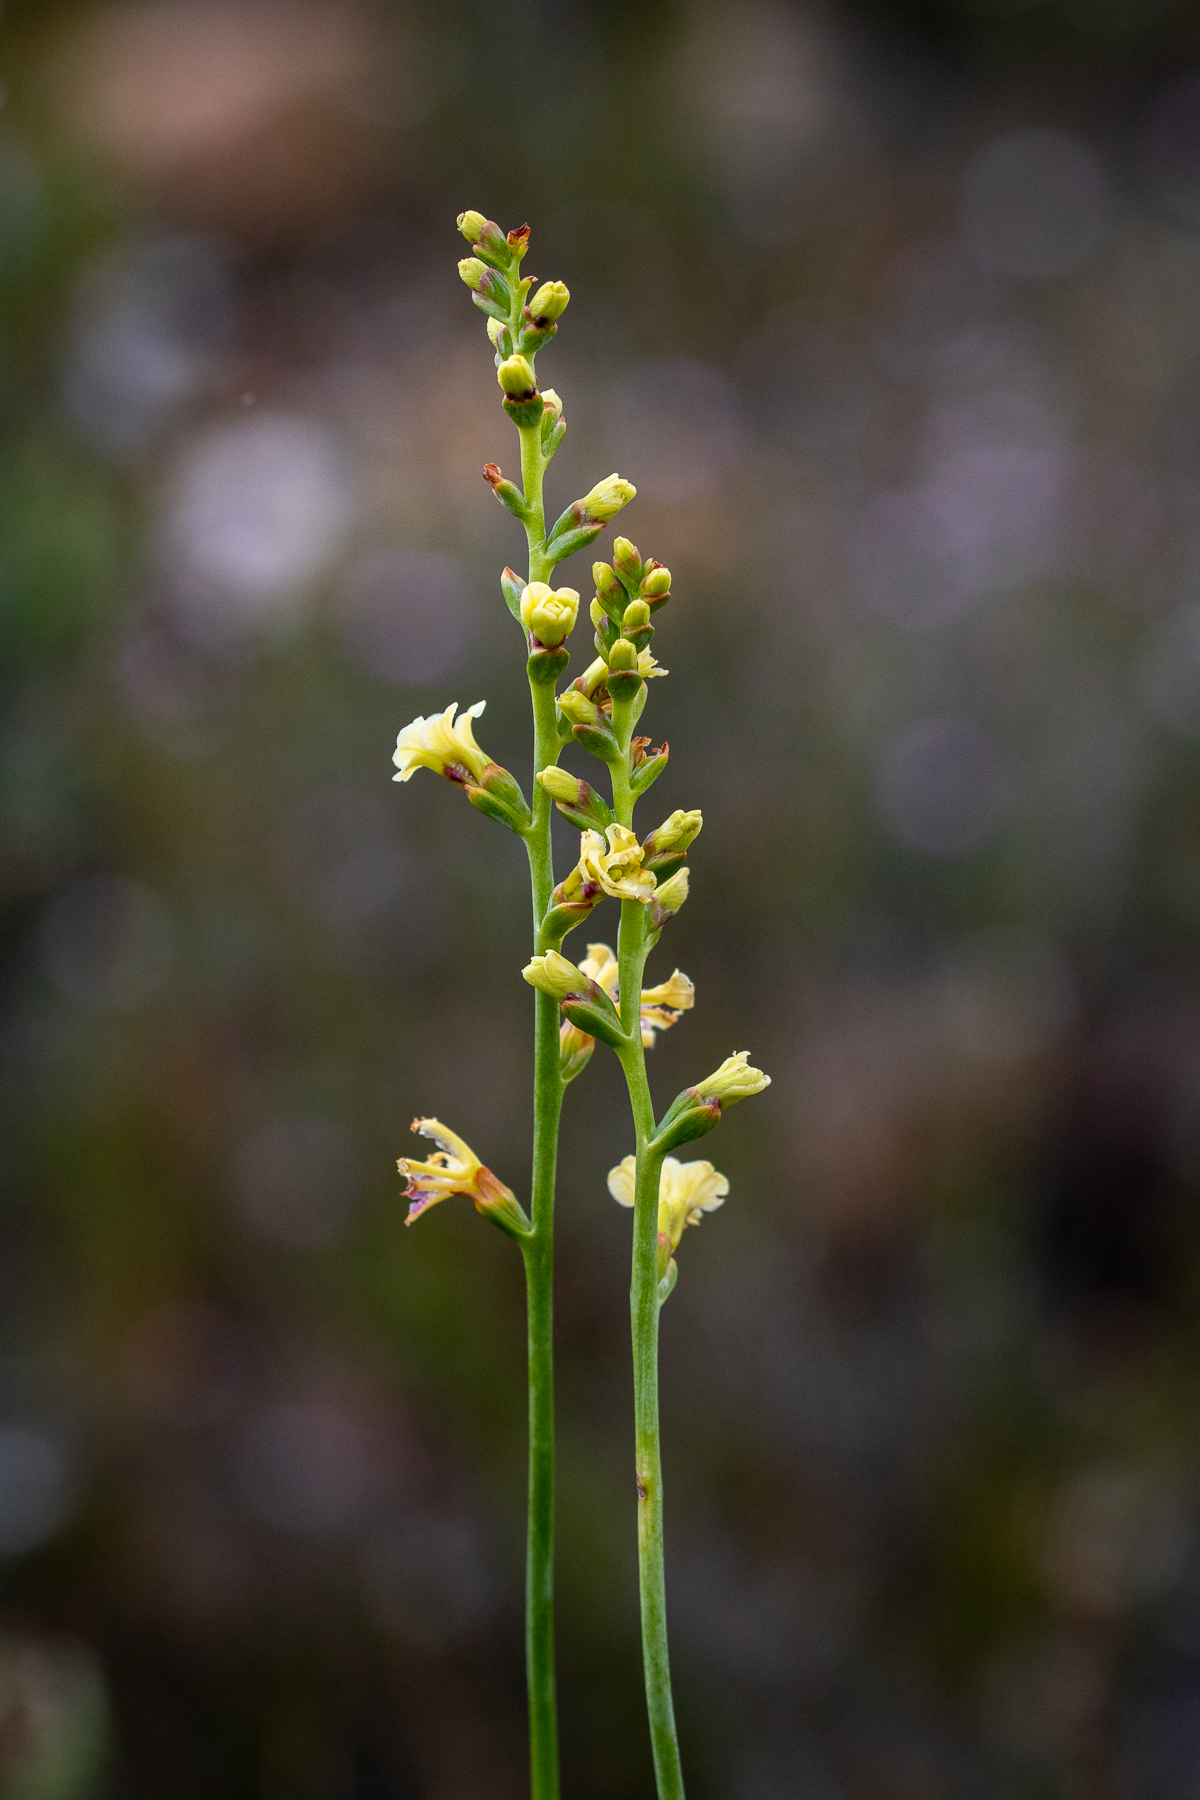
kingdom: Plantae
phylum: Tracheophyta
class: Liliopsida
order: Asparagales
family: Iridaceae
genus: Tritoniopsis
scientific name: Tritoniopsis unguicularis
